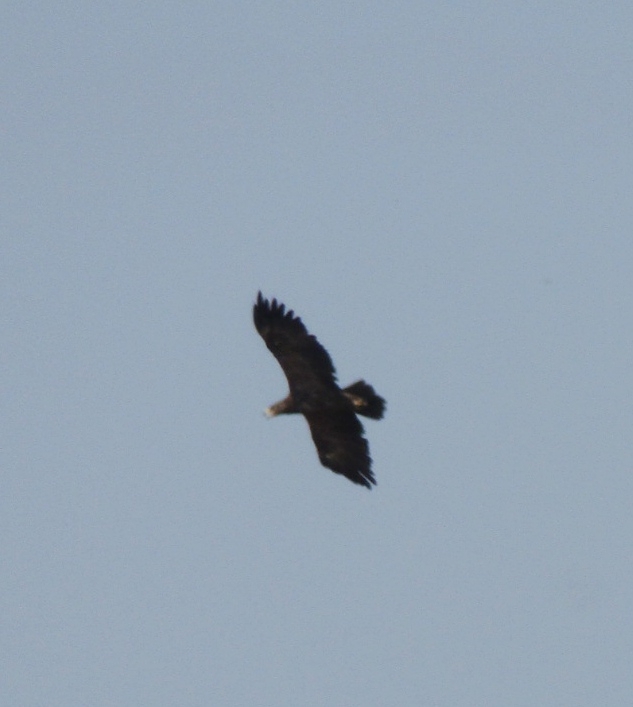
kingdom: Animalia
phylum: Chordata
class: Aves
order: Accipitriformes
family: Accipitridae
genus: Aquila
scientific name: Aquila pomarina
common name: Lesser spotted eagle
